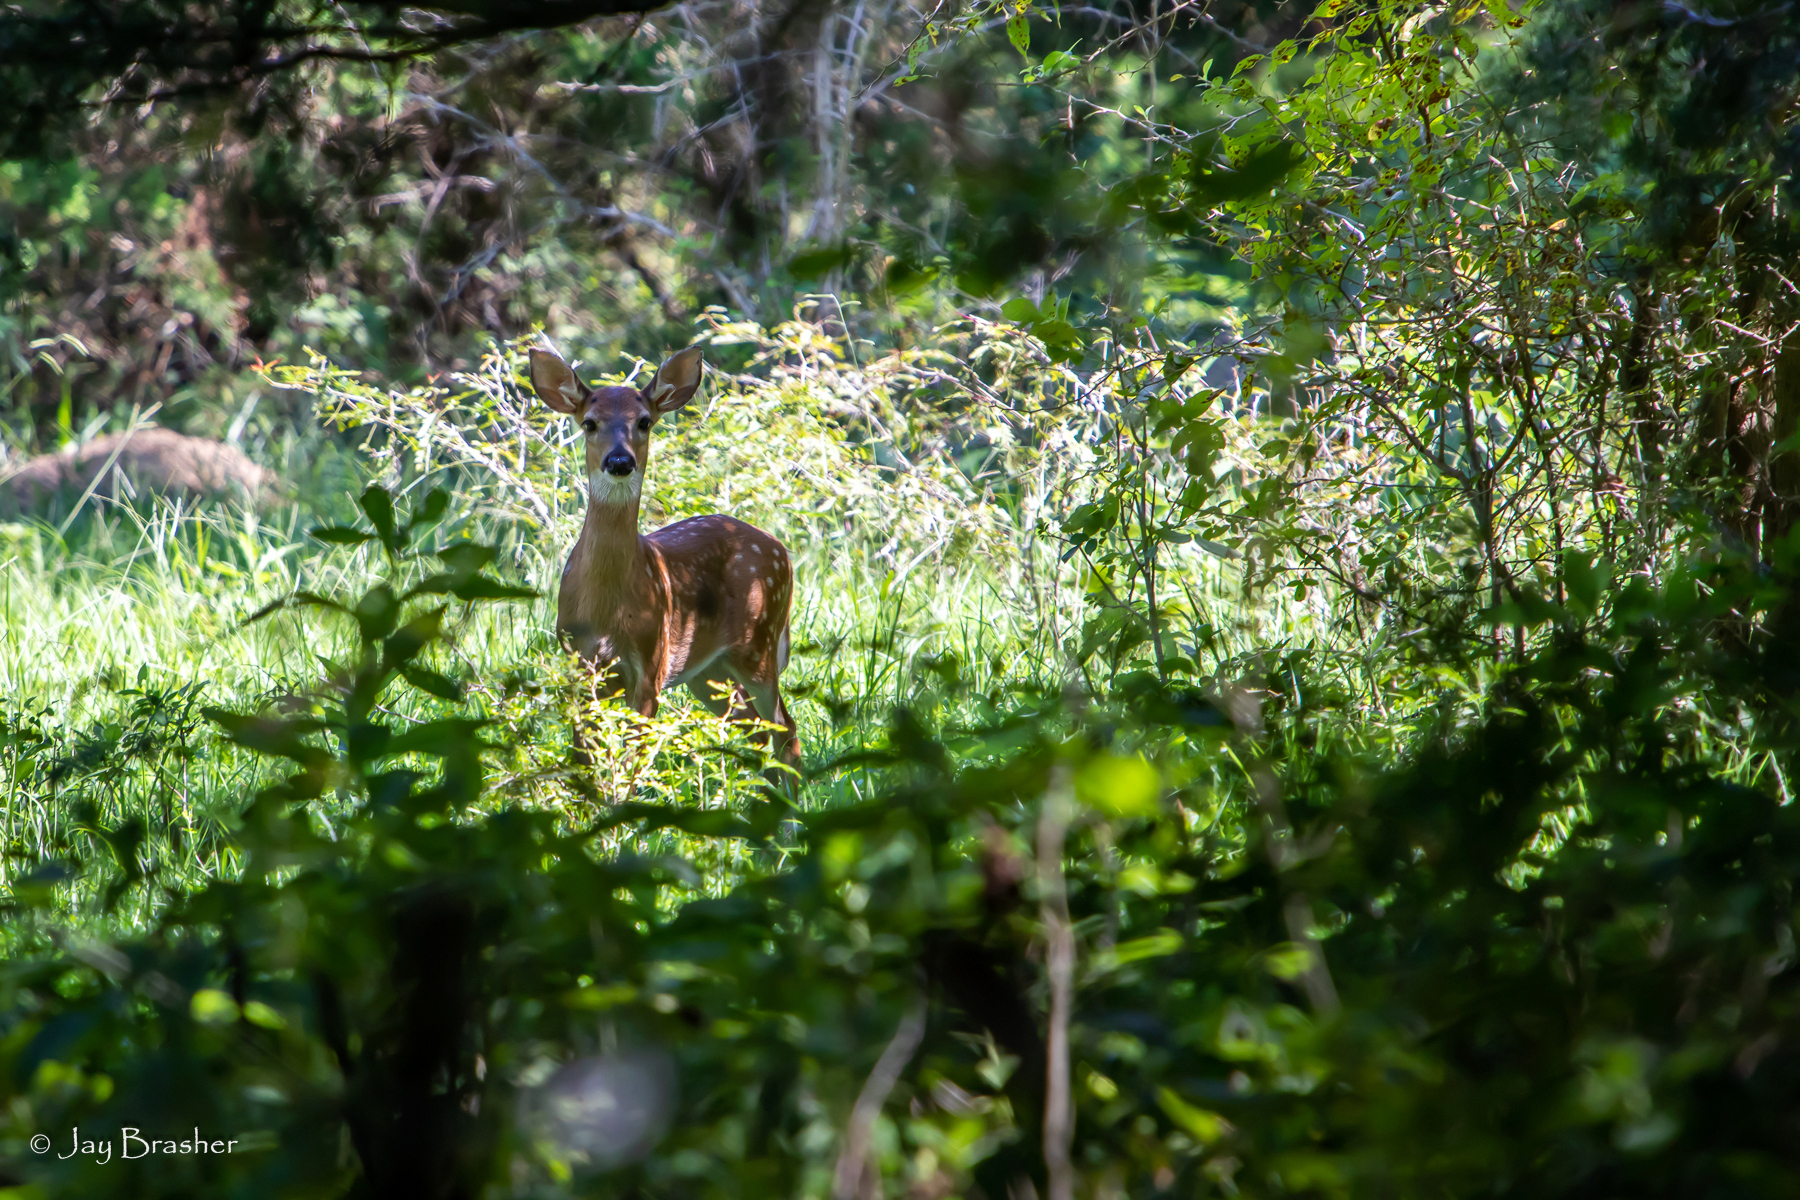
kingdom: Animalia
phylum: Chordata
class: Mammalia
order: Artiodactyla
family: Cervidae
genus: Odocoileus
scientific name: Odocoileus virginianus
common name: White-tailed deer
